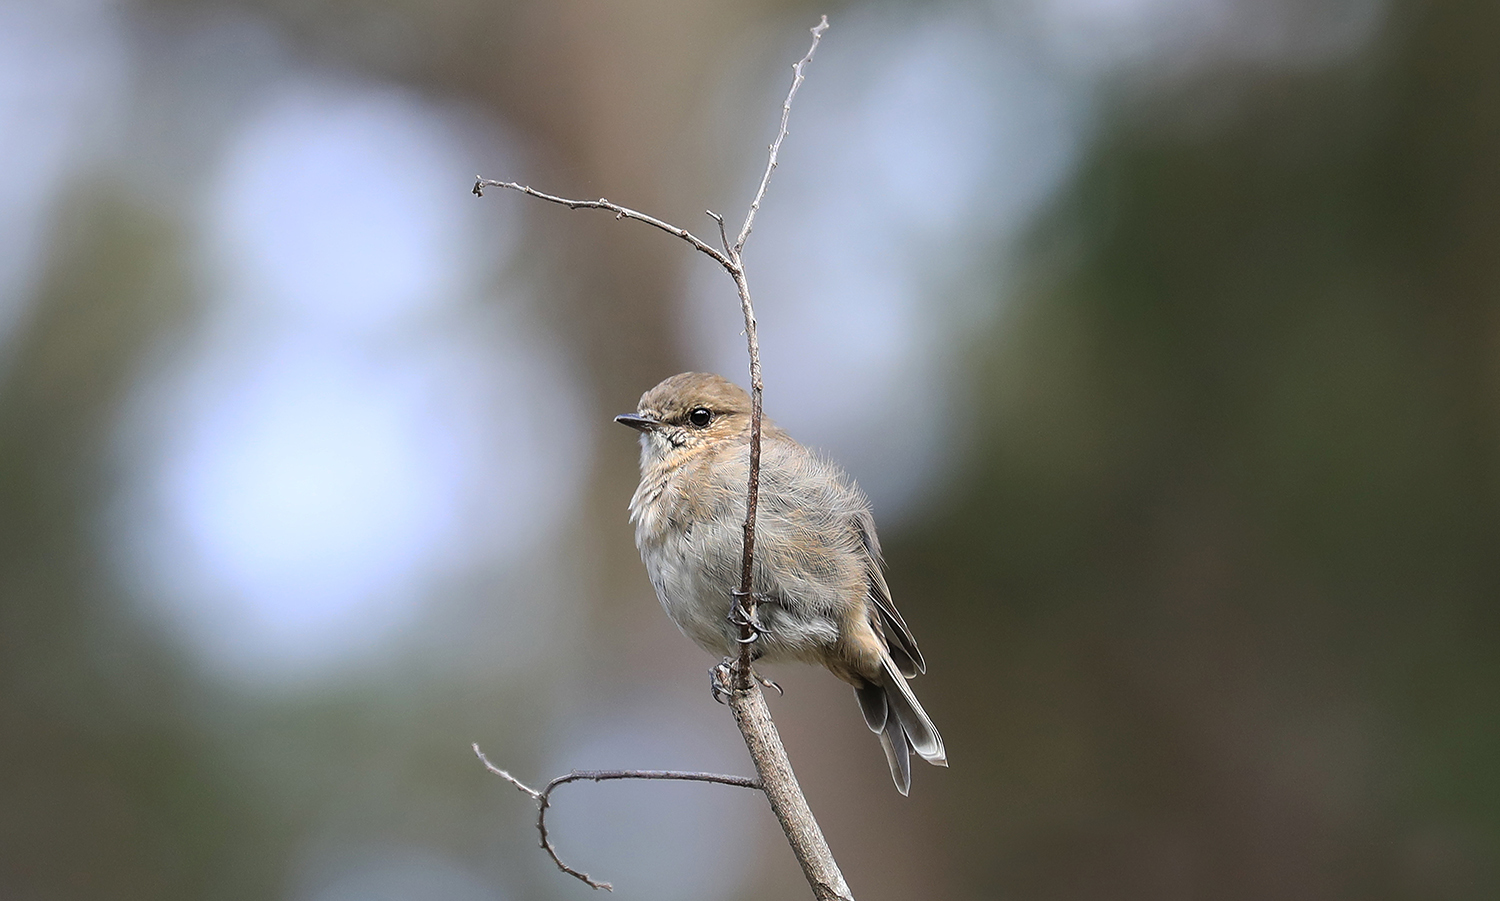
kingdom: Animalia
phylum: Chordata
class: Aves
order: Passeriformes
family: Petroicidae
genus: Melanodryas
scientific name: Melanodryas vittata
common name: Dusky robin
